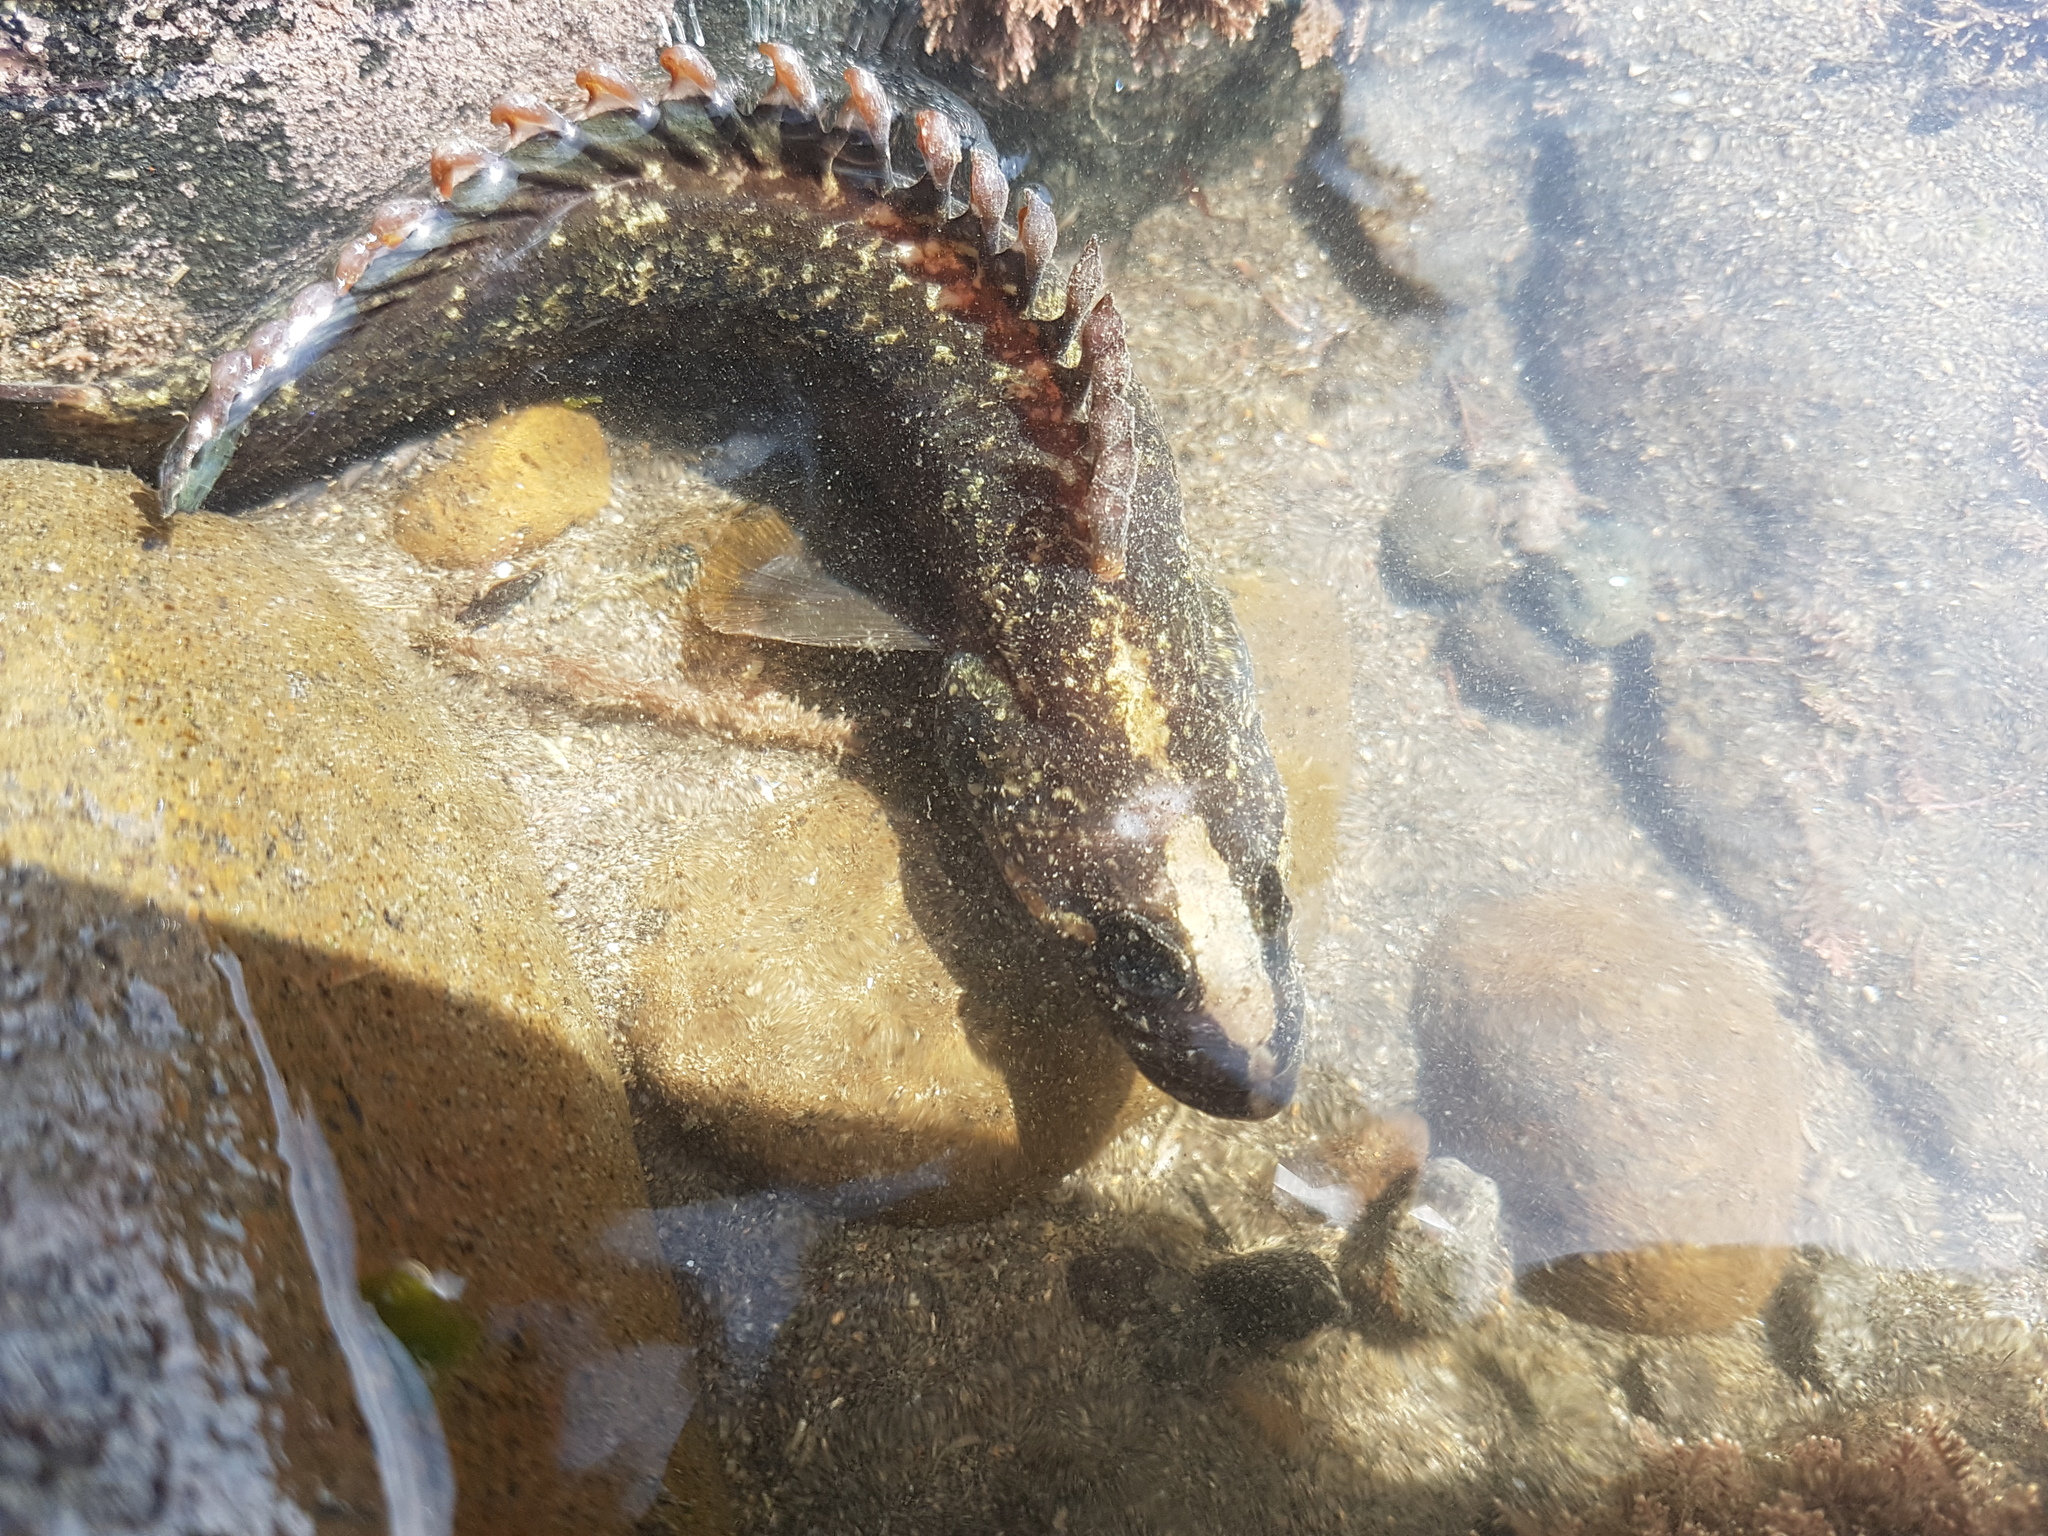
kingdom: Animalia
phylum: Chordata
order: Perciformes
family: Plesiopidae
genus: Acanthoclinus
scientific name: Acanthoclinus fuscus
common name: Olive rockfish
